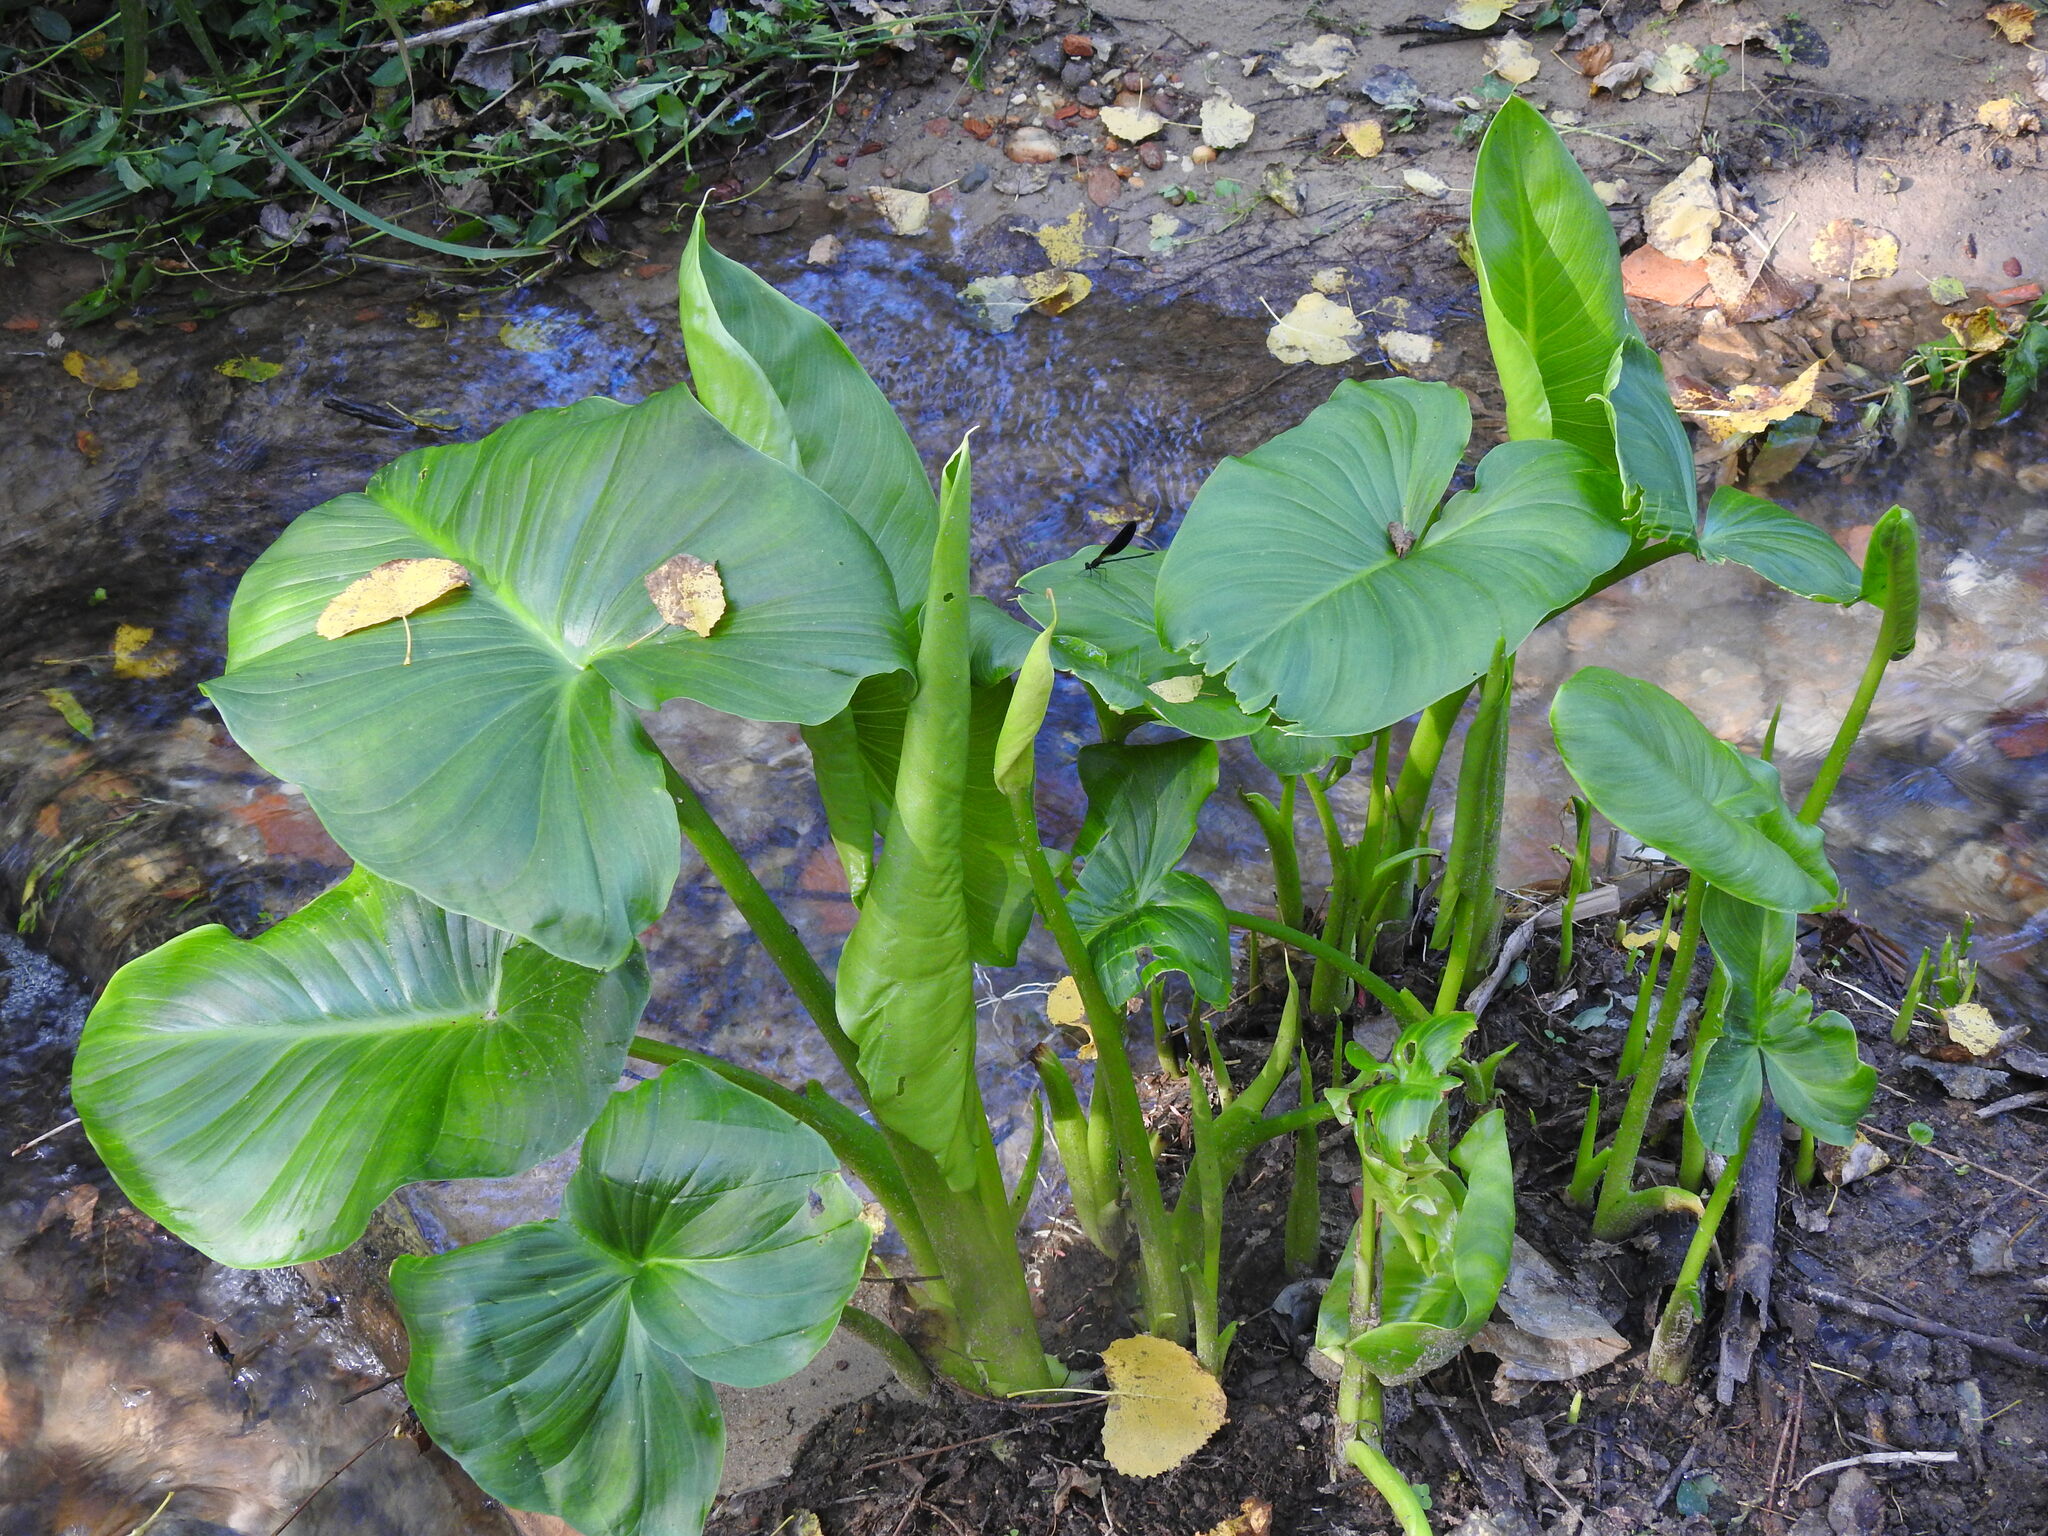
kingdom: Plantae
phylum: Tracheophyta
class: Liliopsida
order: Alismatales
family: Araceae
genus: Zantedeschia
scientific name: Zantedeschia aethiopica
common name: Altar-lily
